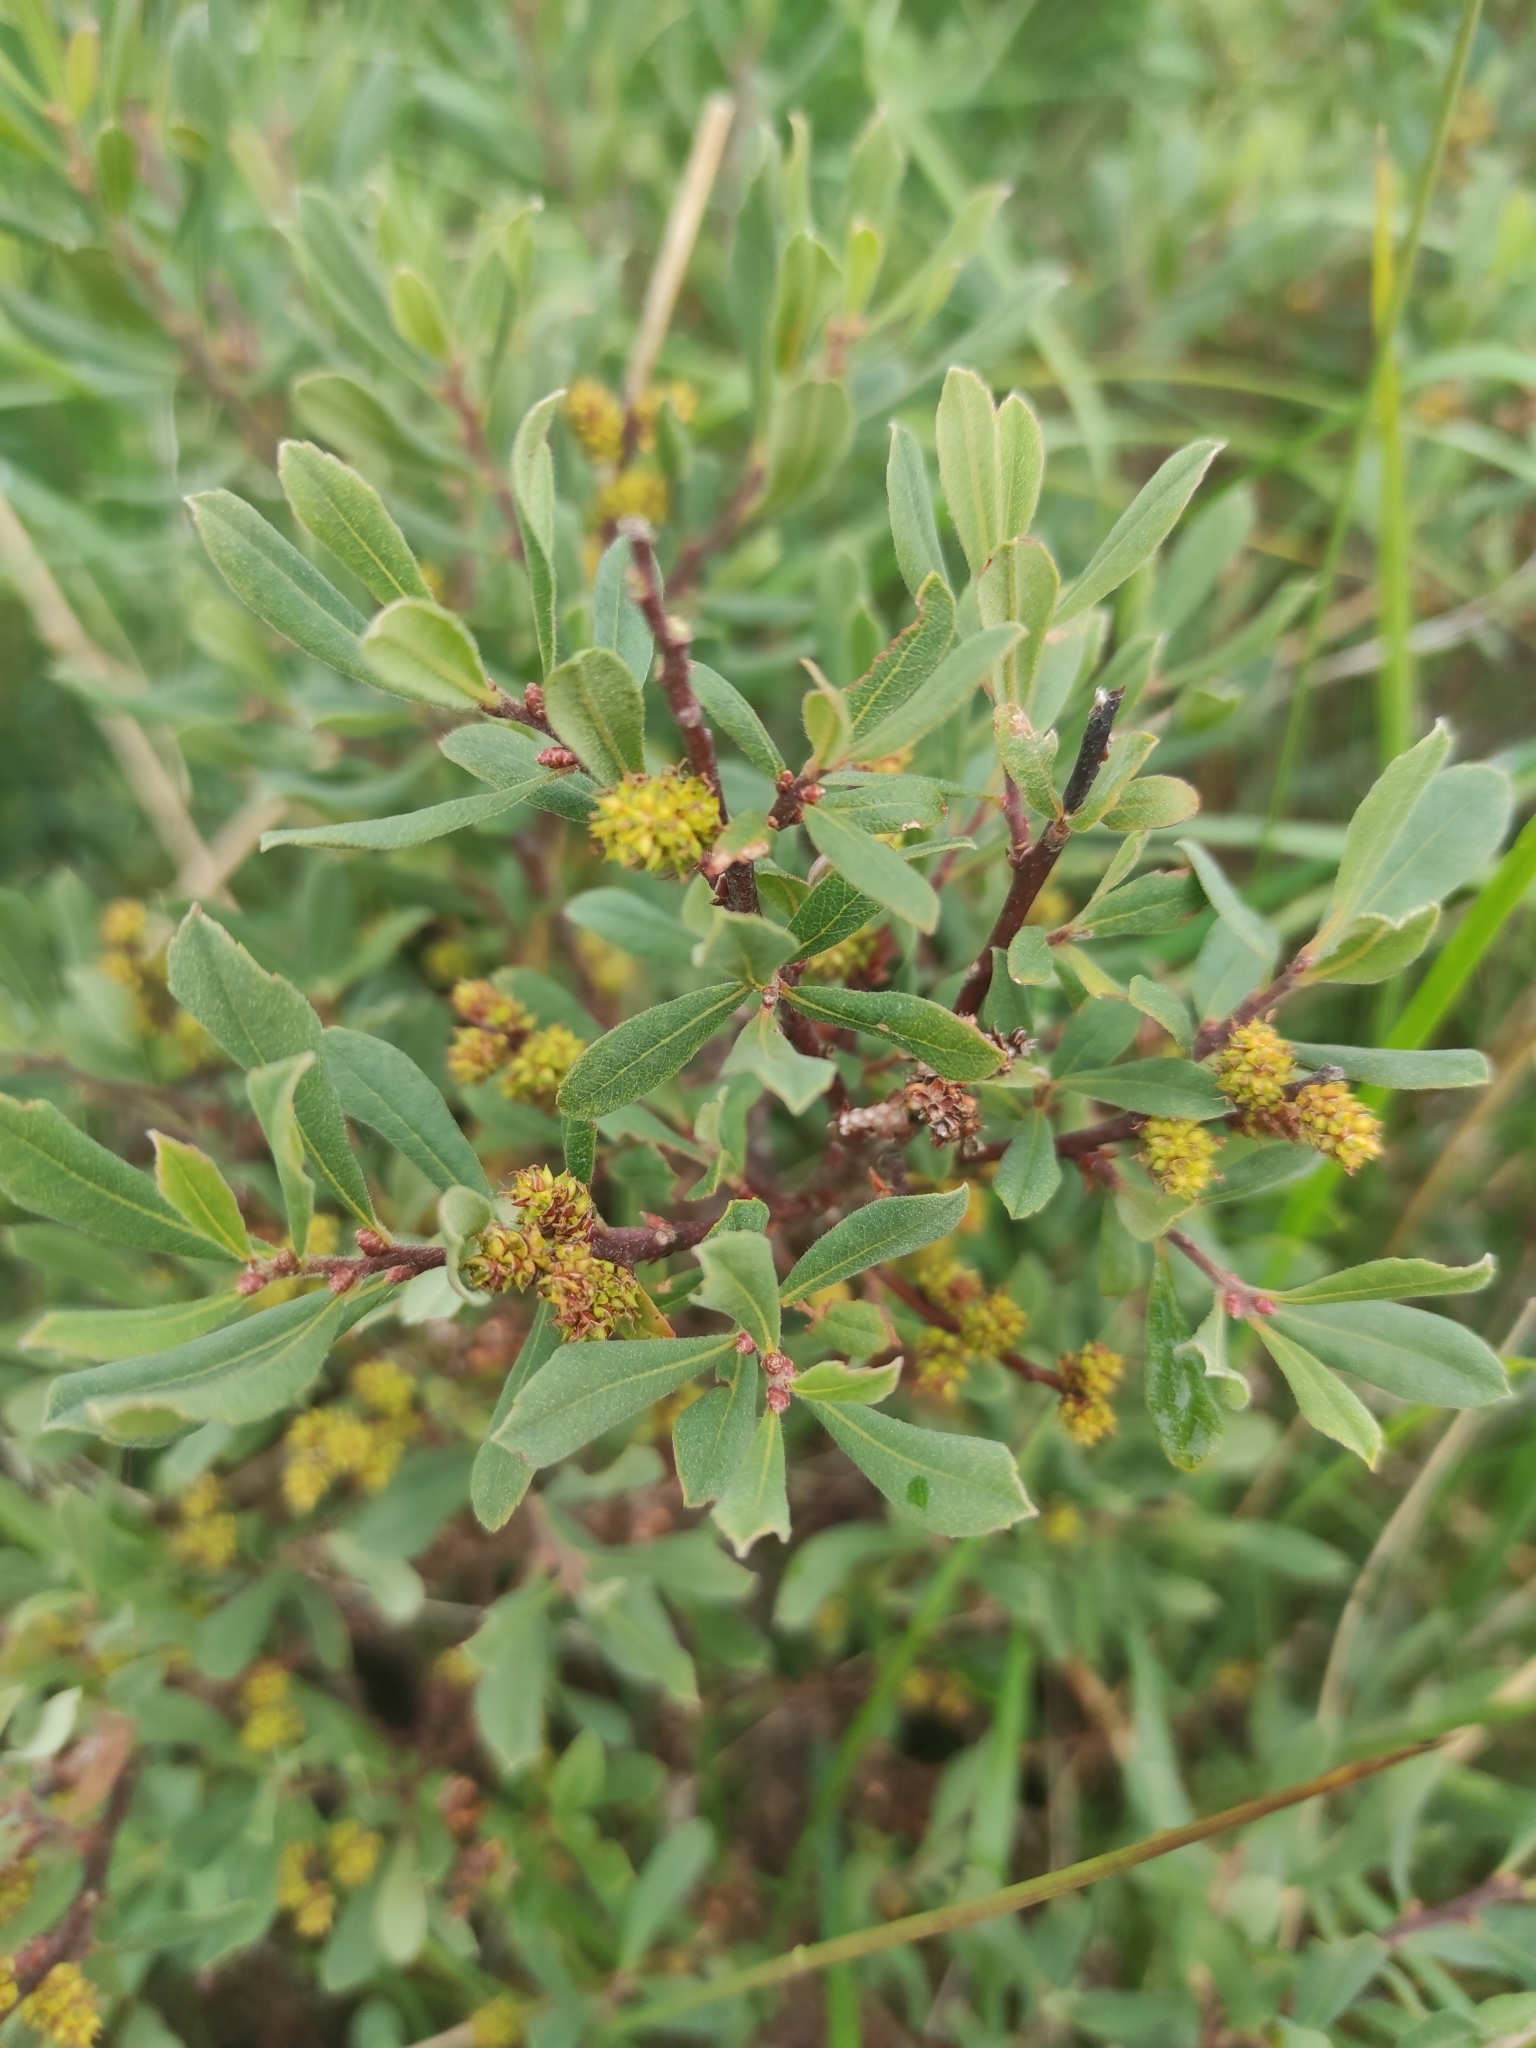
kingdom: Plantae
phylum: Tracheophyta
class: Magnoliopsida
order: Fagales
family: Myricaceae
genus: Myrica
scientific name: Myrica gale
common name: Sweet gale
